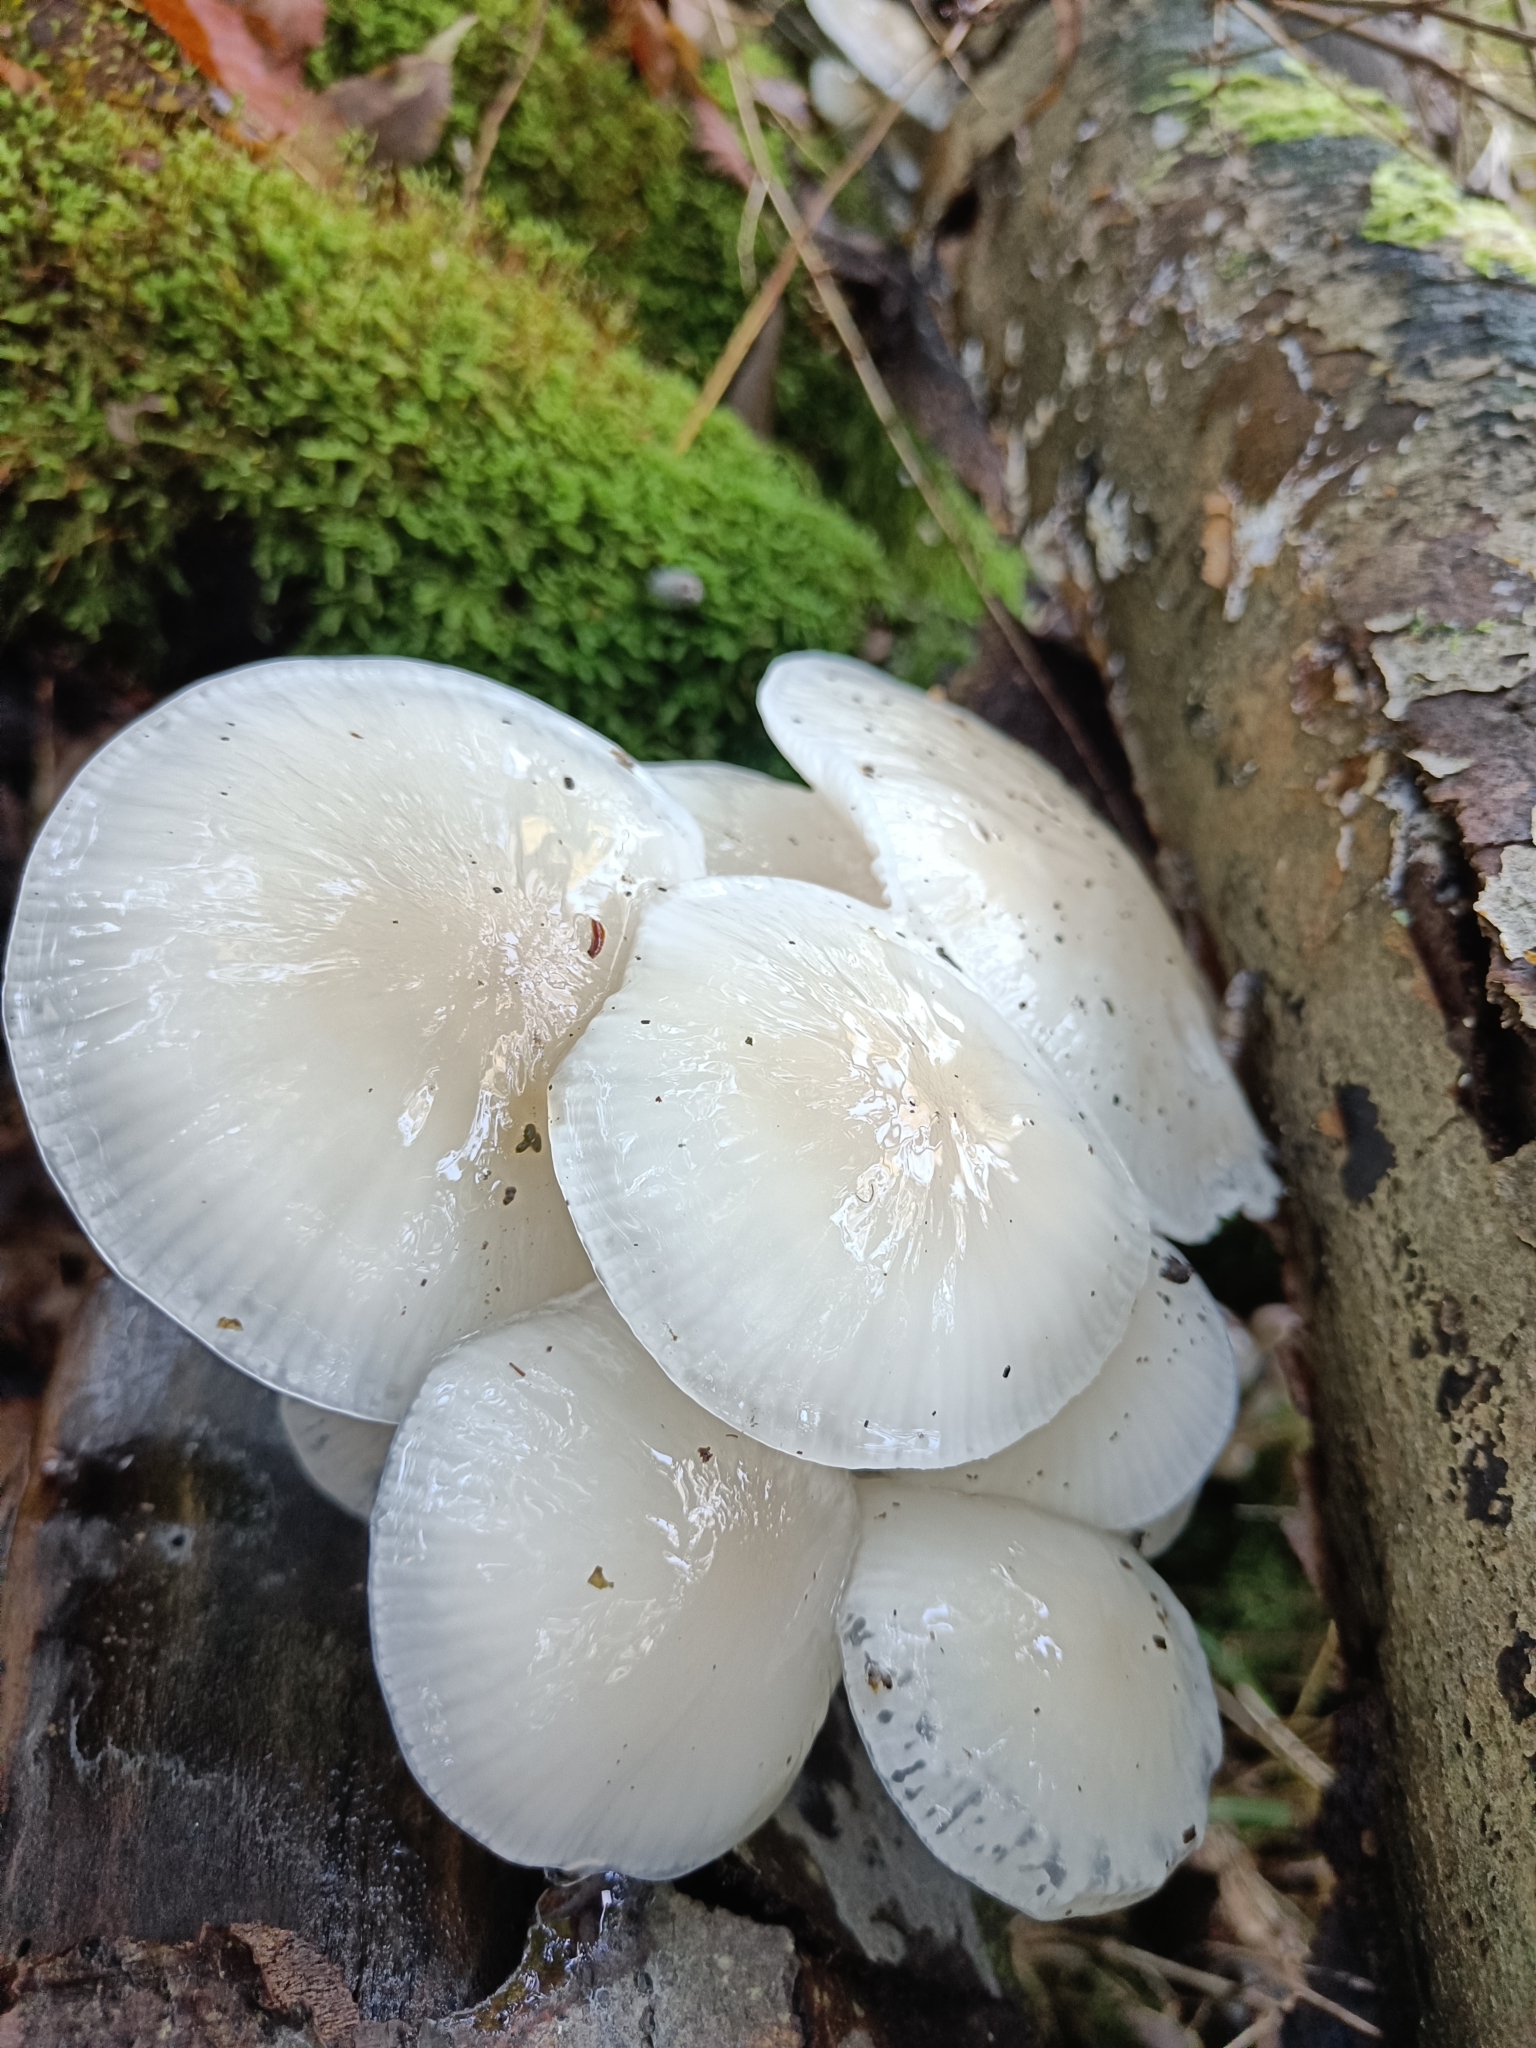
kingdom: Fungi
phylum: Basidiomycota
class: Agaricomycetes
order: Agaricales
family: Physalacriaceae
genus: Mucidula
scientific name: Mucidula mucida
